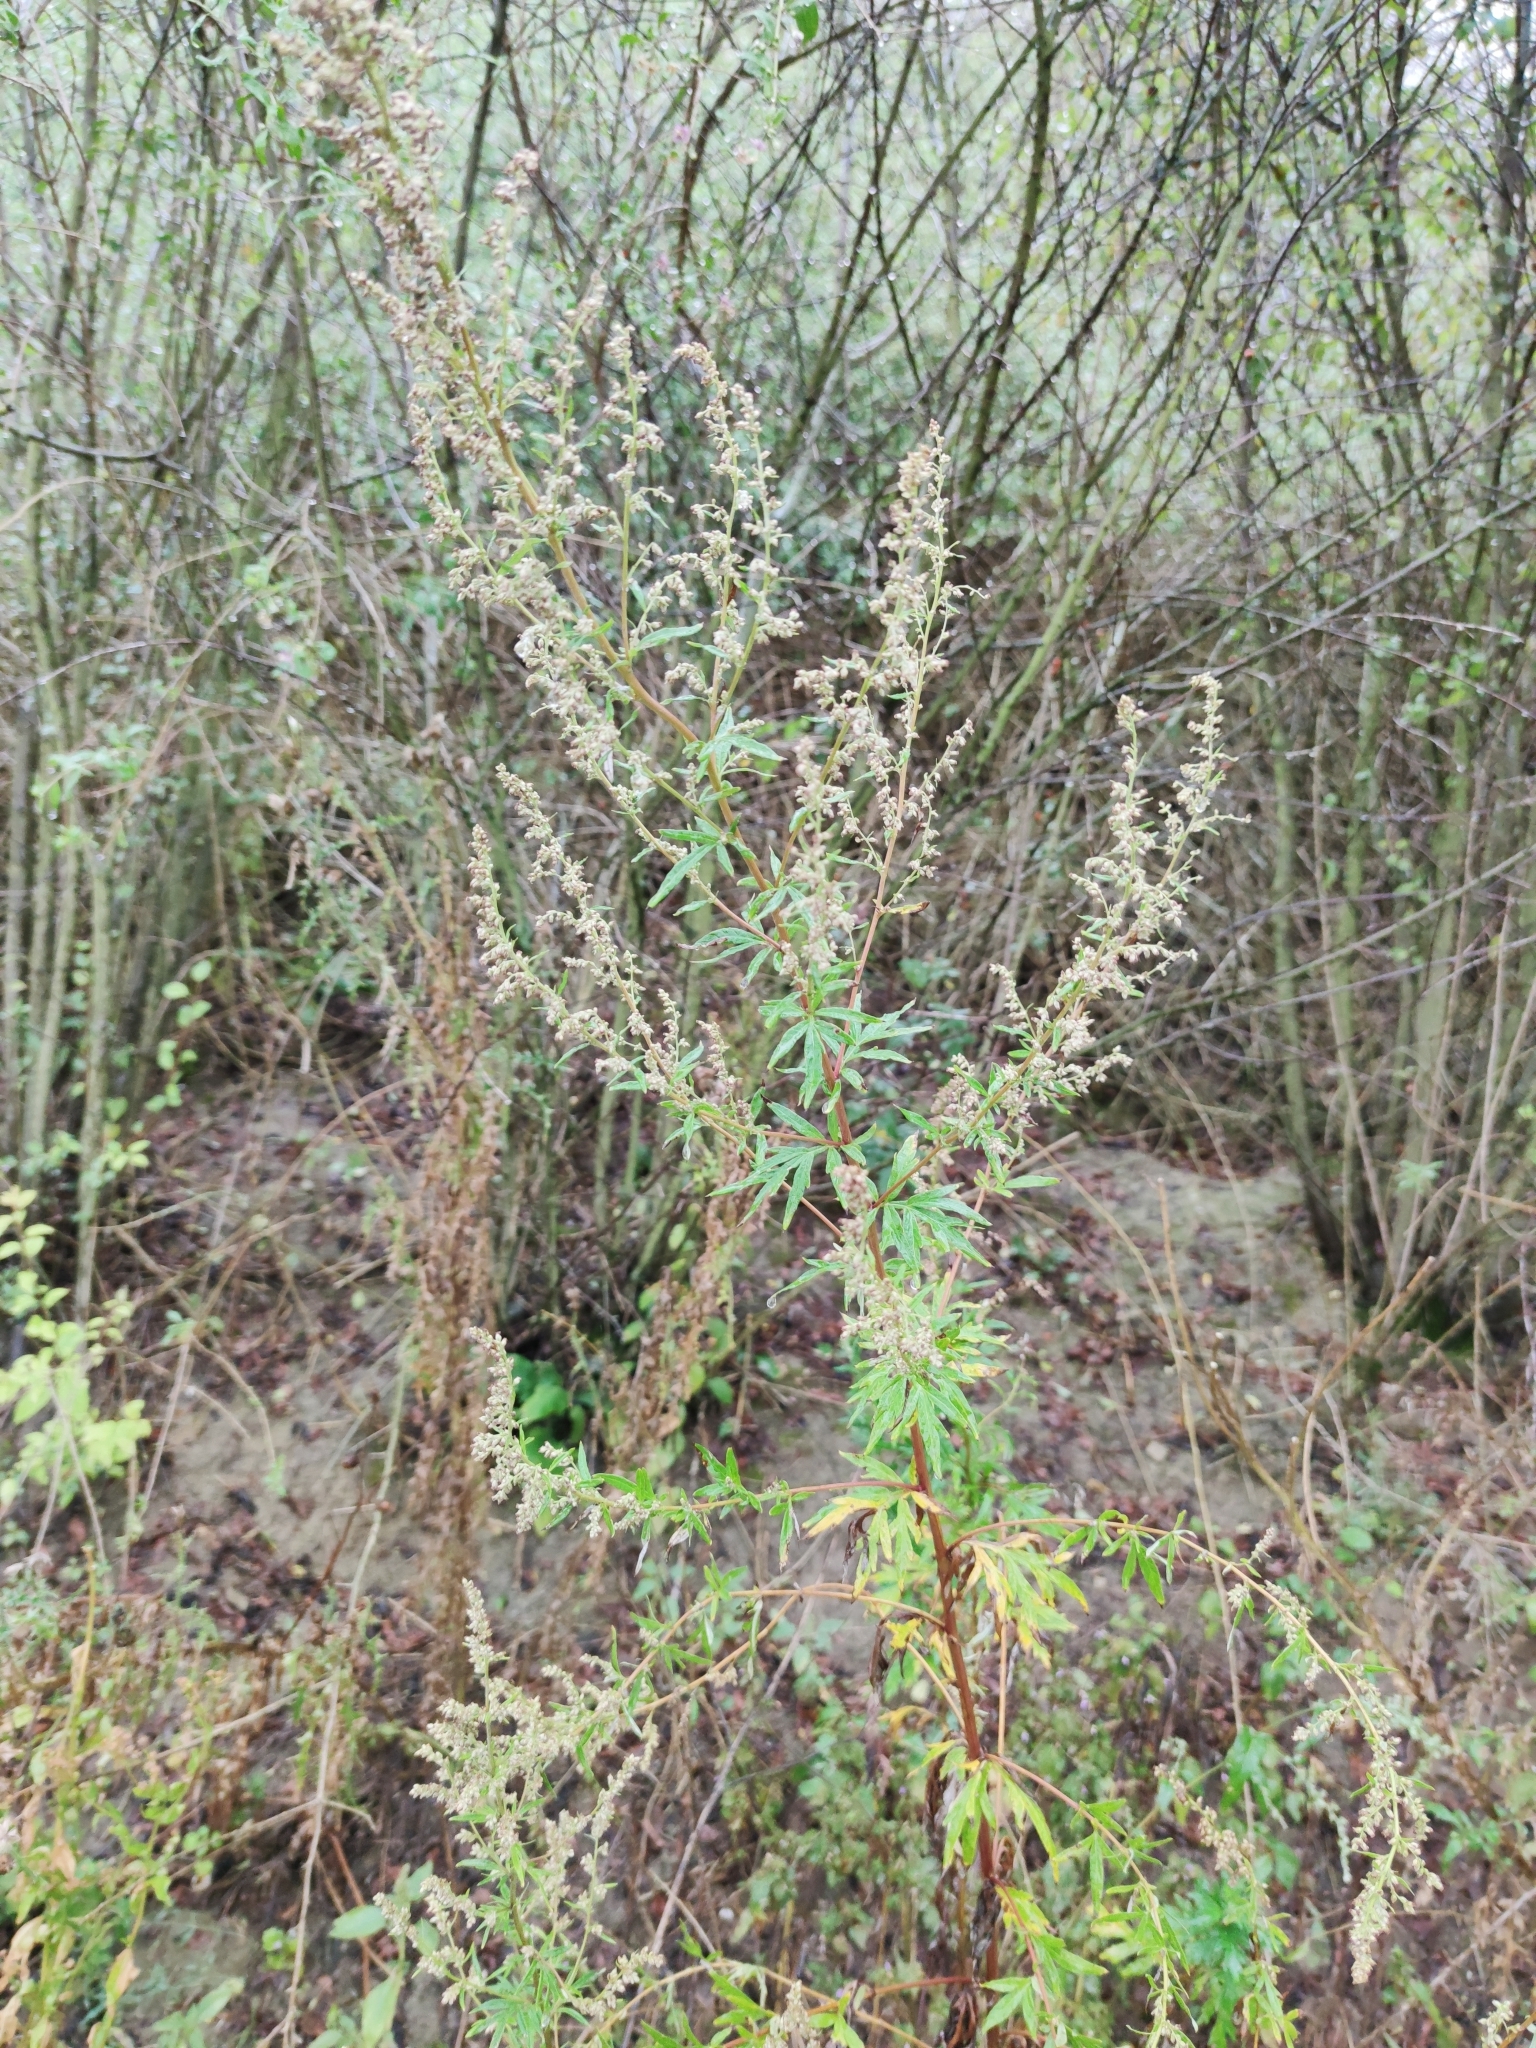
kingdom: Plantae
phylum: Tracheophyta
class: Magnoliopsida
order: Asterales
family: Asteraceae
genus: Artemisia
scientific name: Artemisia vulgaris
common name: Mugwort
